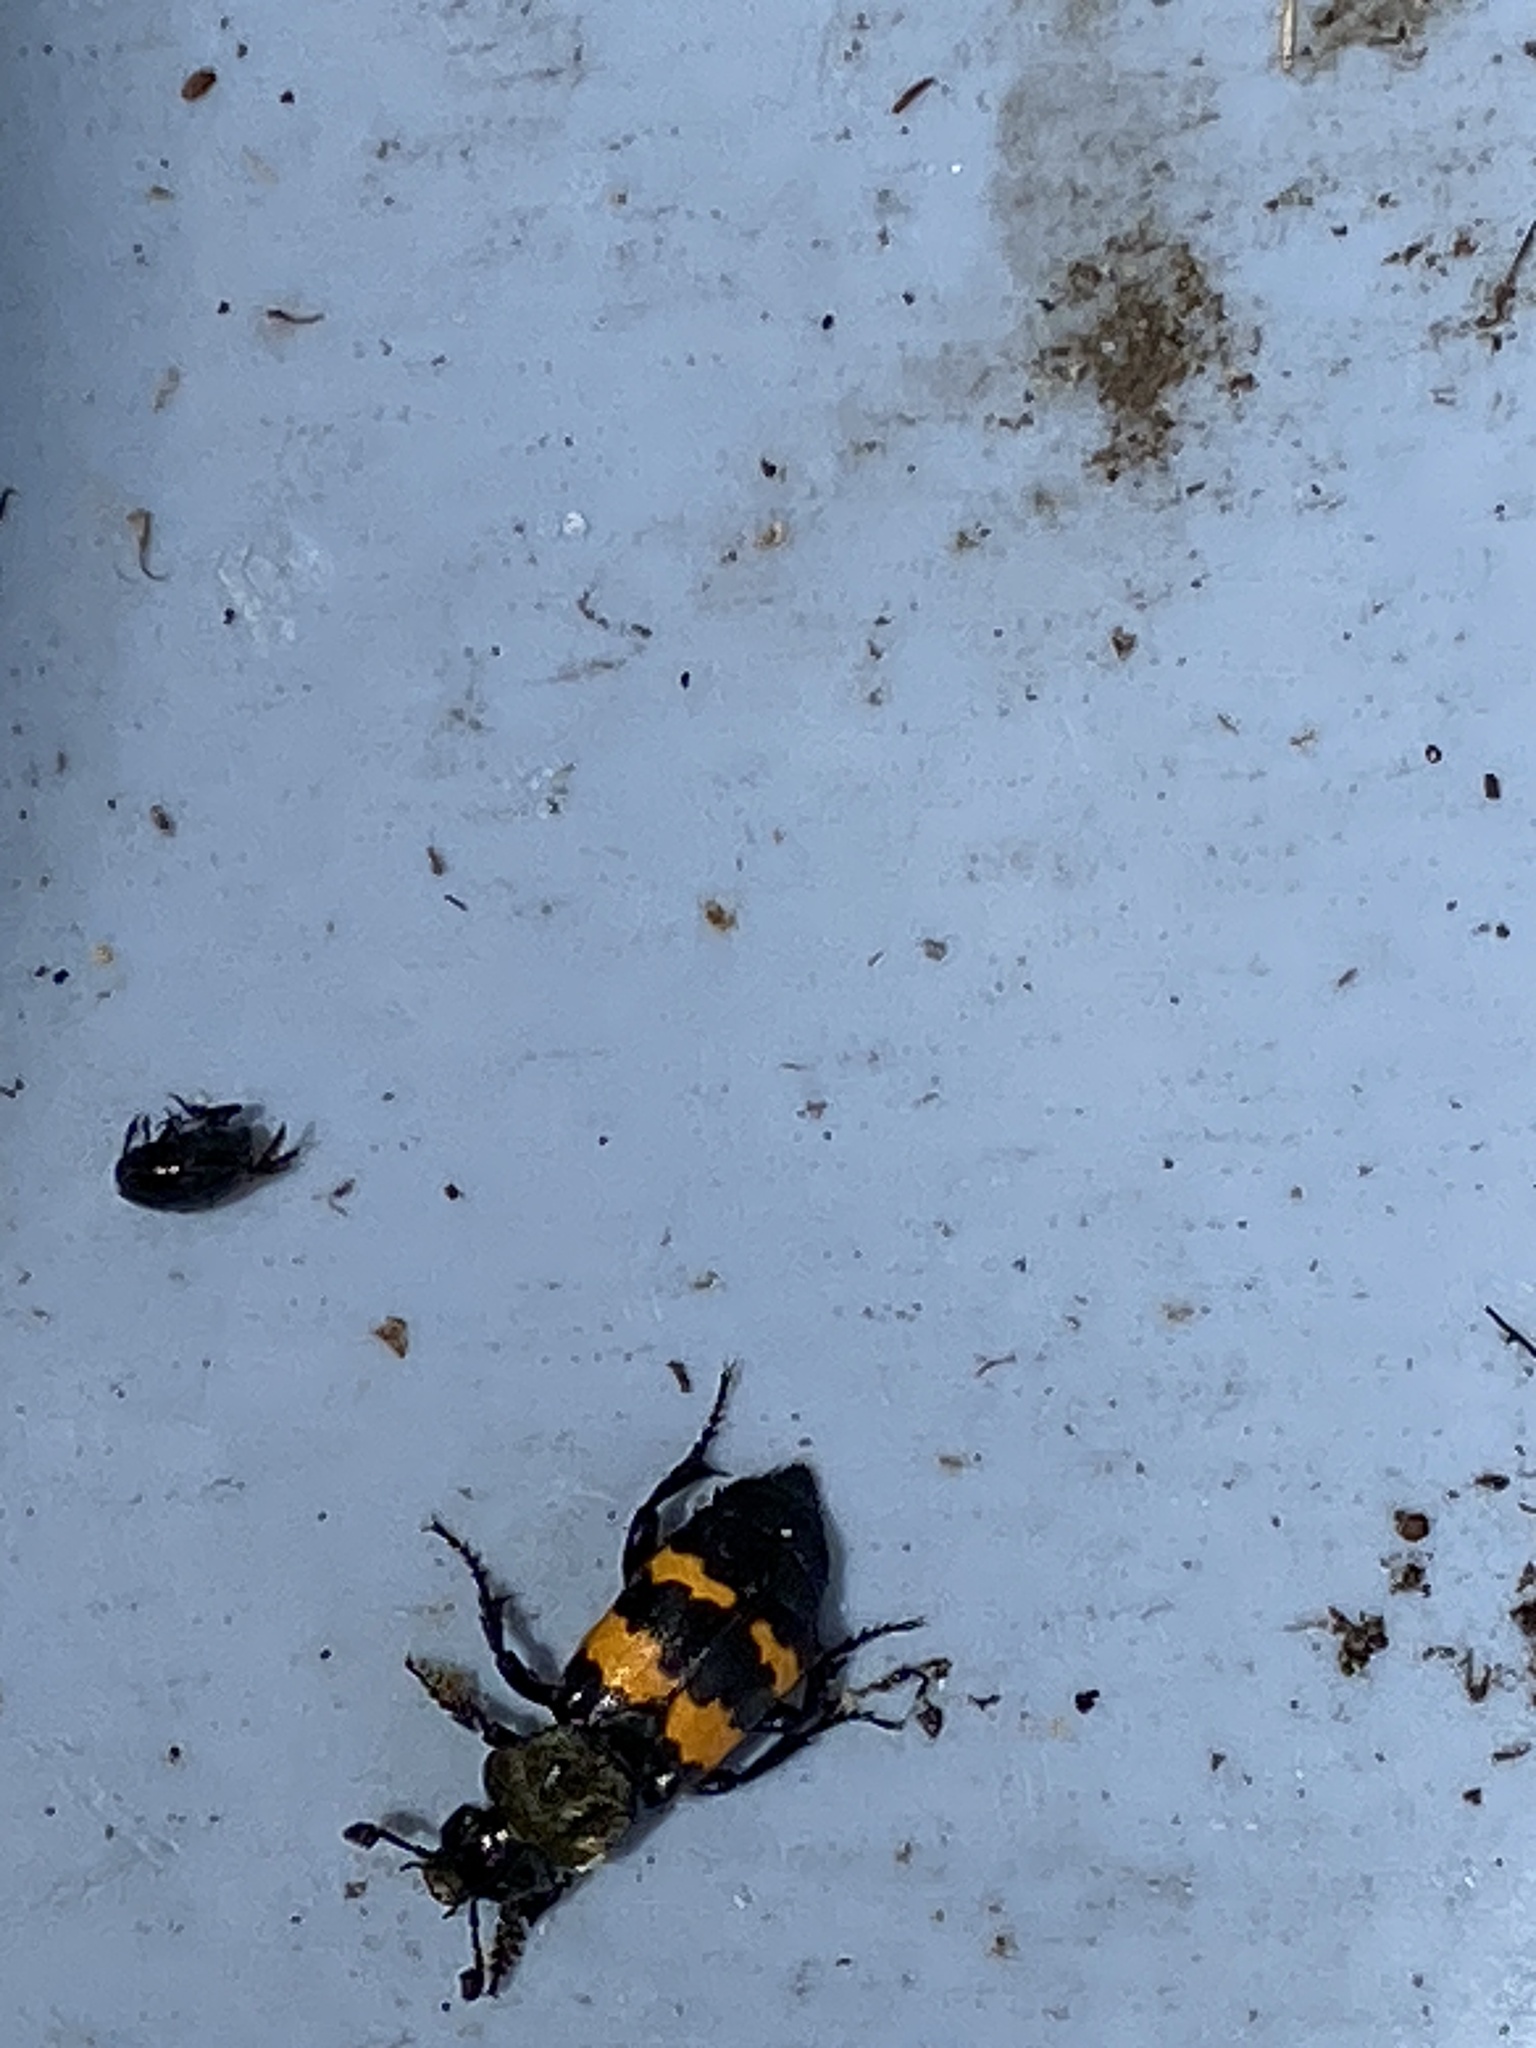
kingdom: Animalia
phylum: Arthropoda
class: Insecta
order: Coleoptera
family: Staphylinidae
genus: Nicrophorus
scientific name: Nicrophorus tomentosus
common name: Tomentose burying beetle
